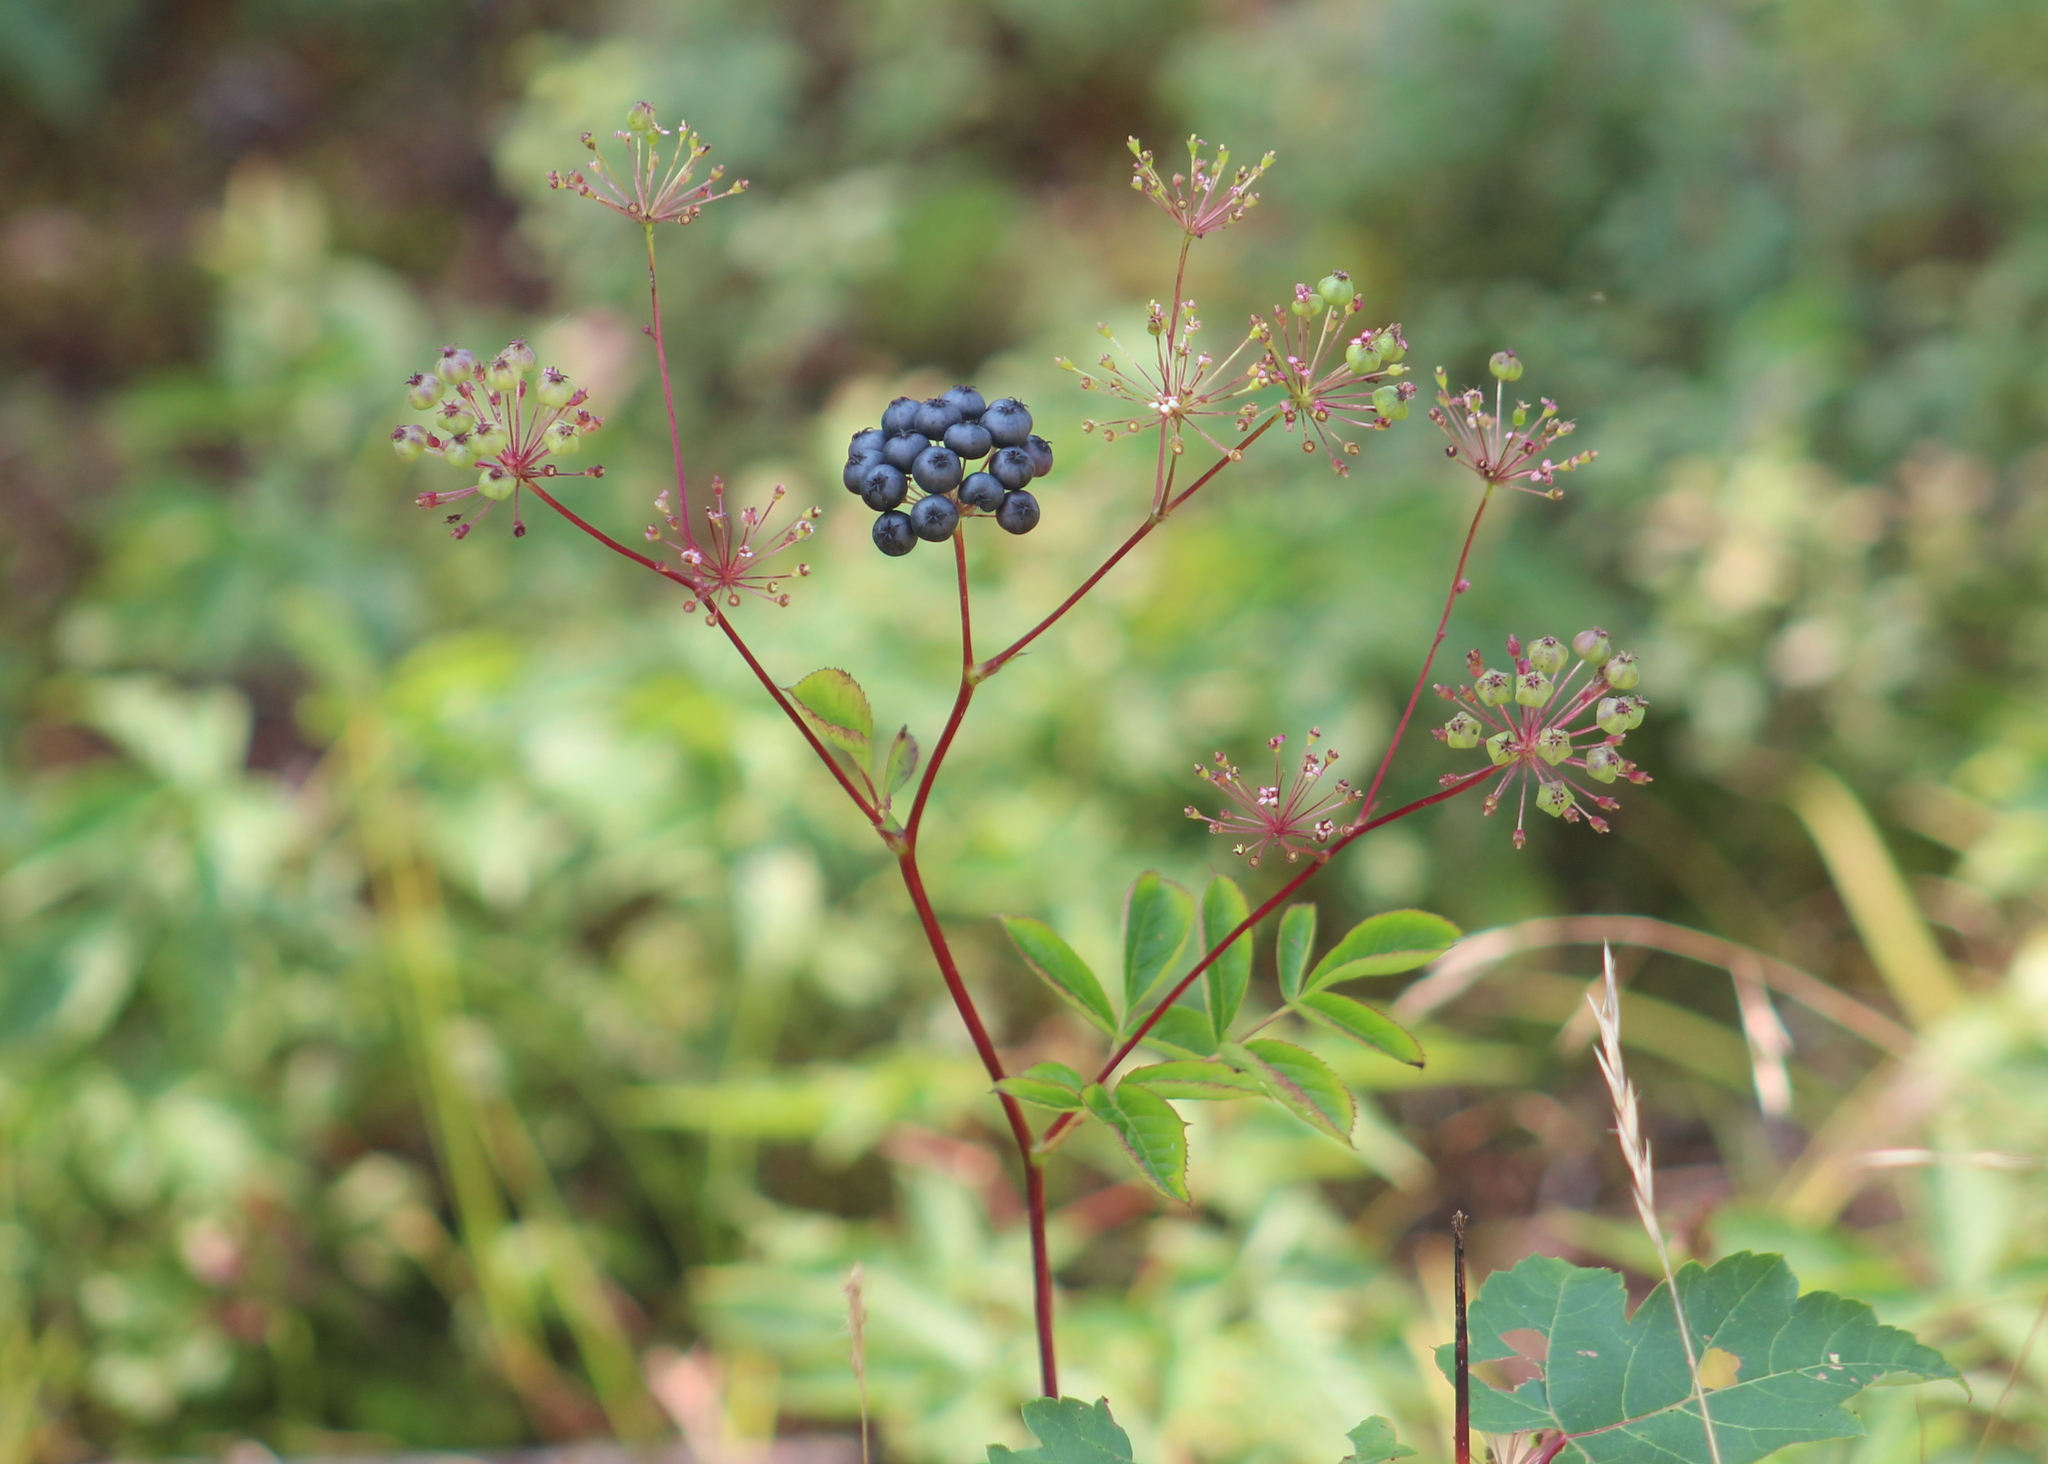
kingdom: Plantae
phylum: Tracheophyta
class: Magnoliopsida
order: Apiales
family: Araliaceae
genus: Aralia
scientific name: Aralia hispida
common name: Bristly sarsaparilla
